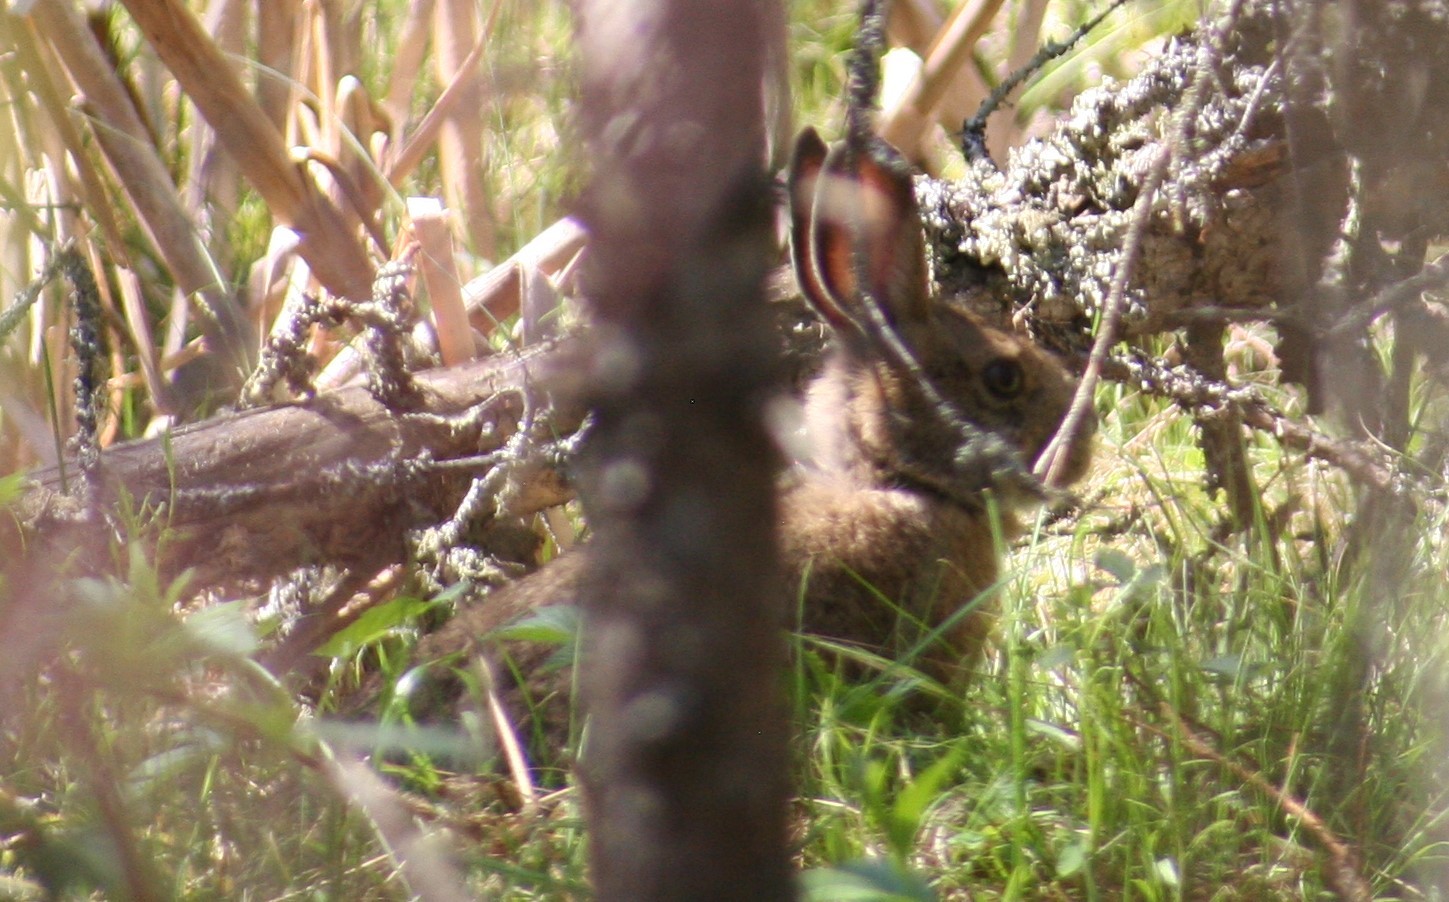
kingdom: Animalia
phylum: Chordata
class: Mammalia
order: Lagomorpha
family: Leporidae
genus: Lepus
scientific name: Lepus americanus
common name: Snowshoe hare
